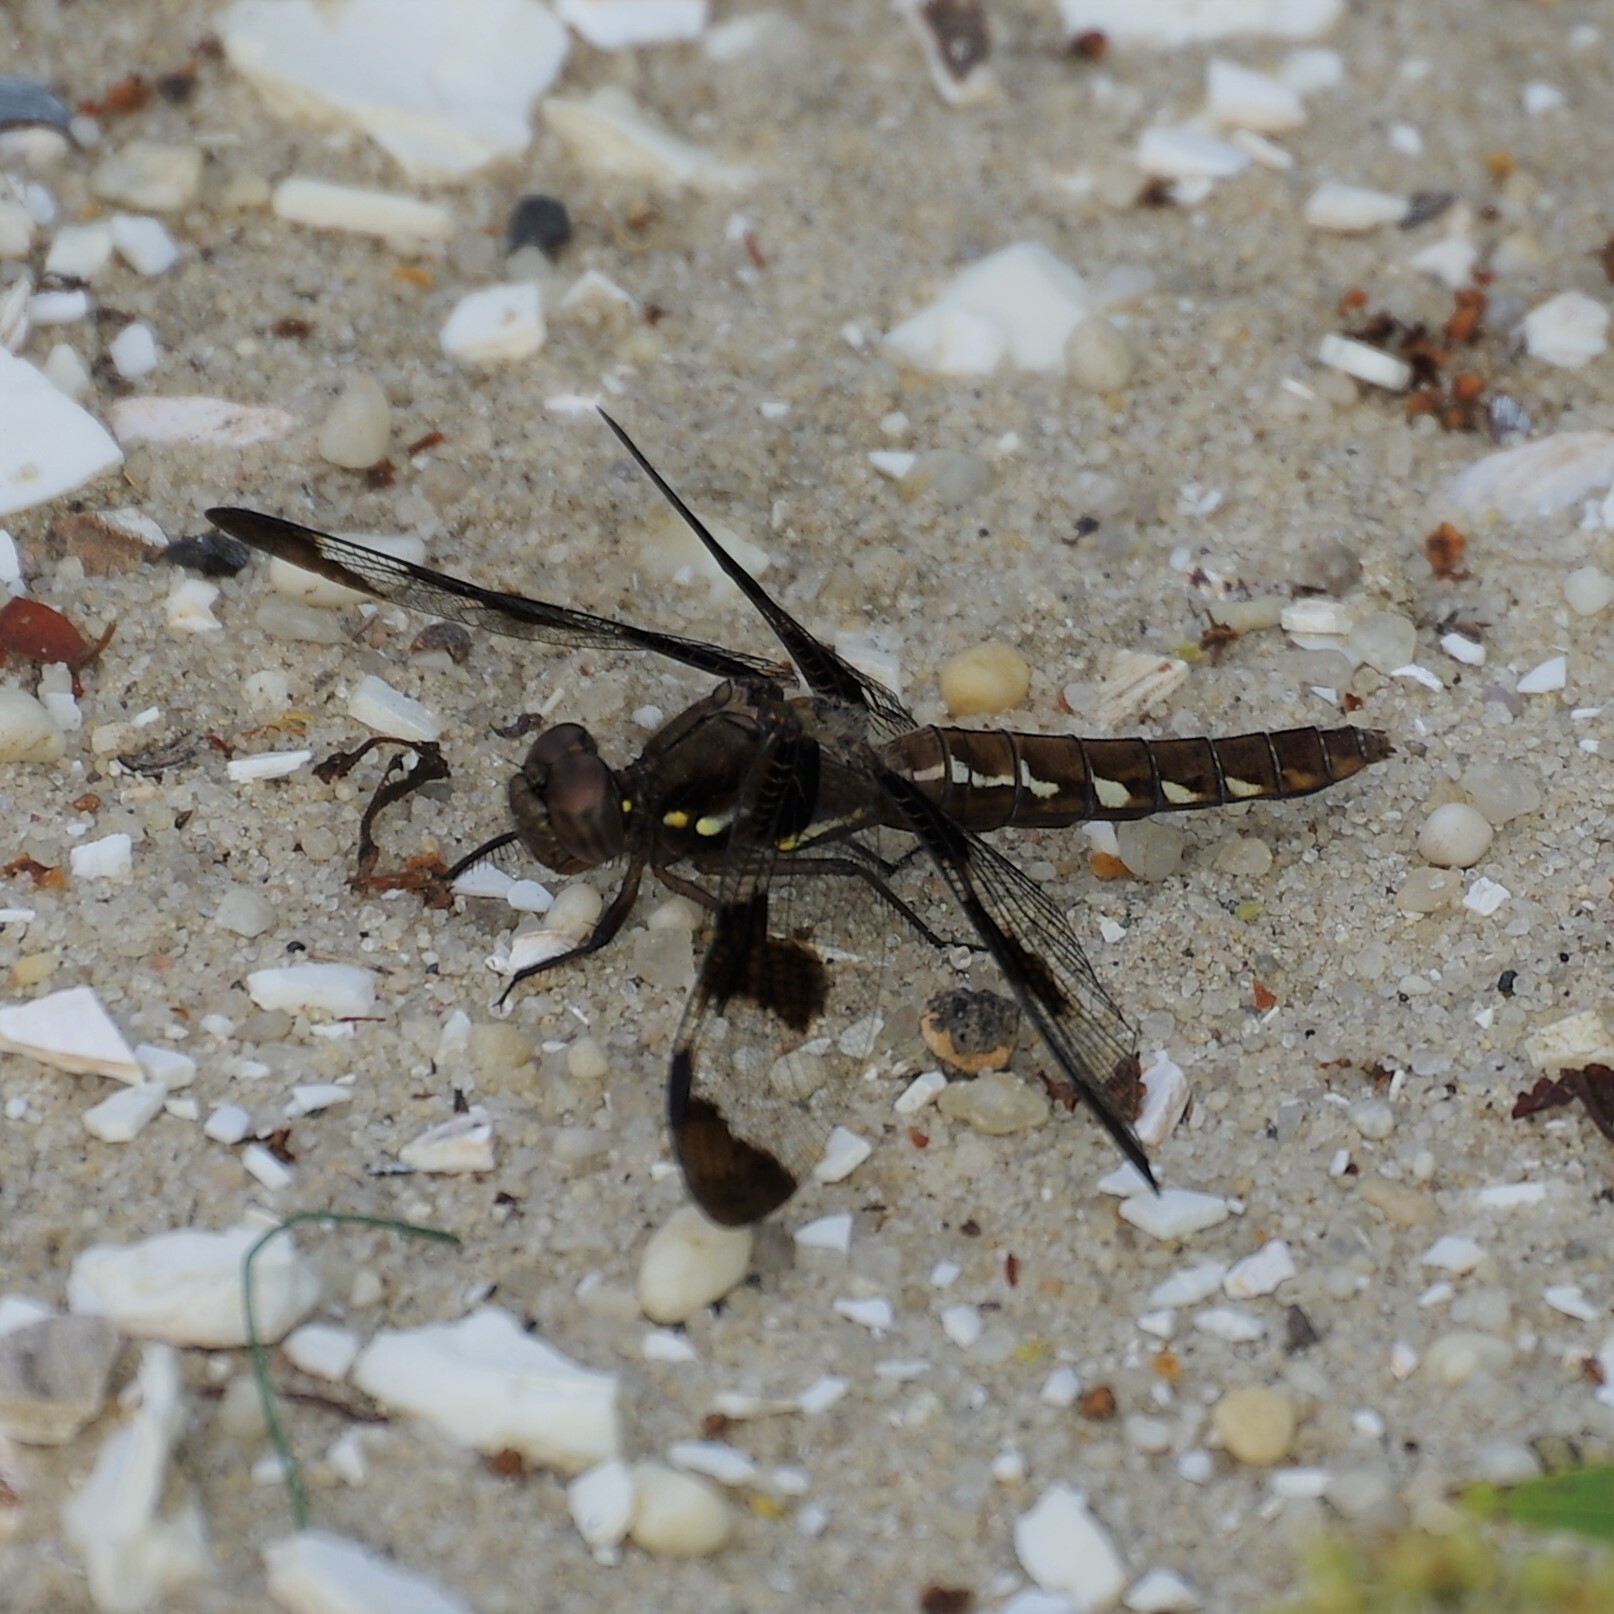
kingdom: Animalia
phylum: Arthropoda
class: Insecta
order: Odonata
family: Libellulidae
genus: Plathemis
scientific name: Plathemis lydia
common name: Common whitetail
